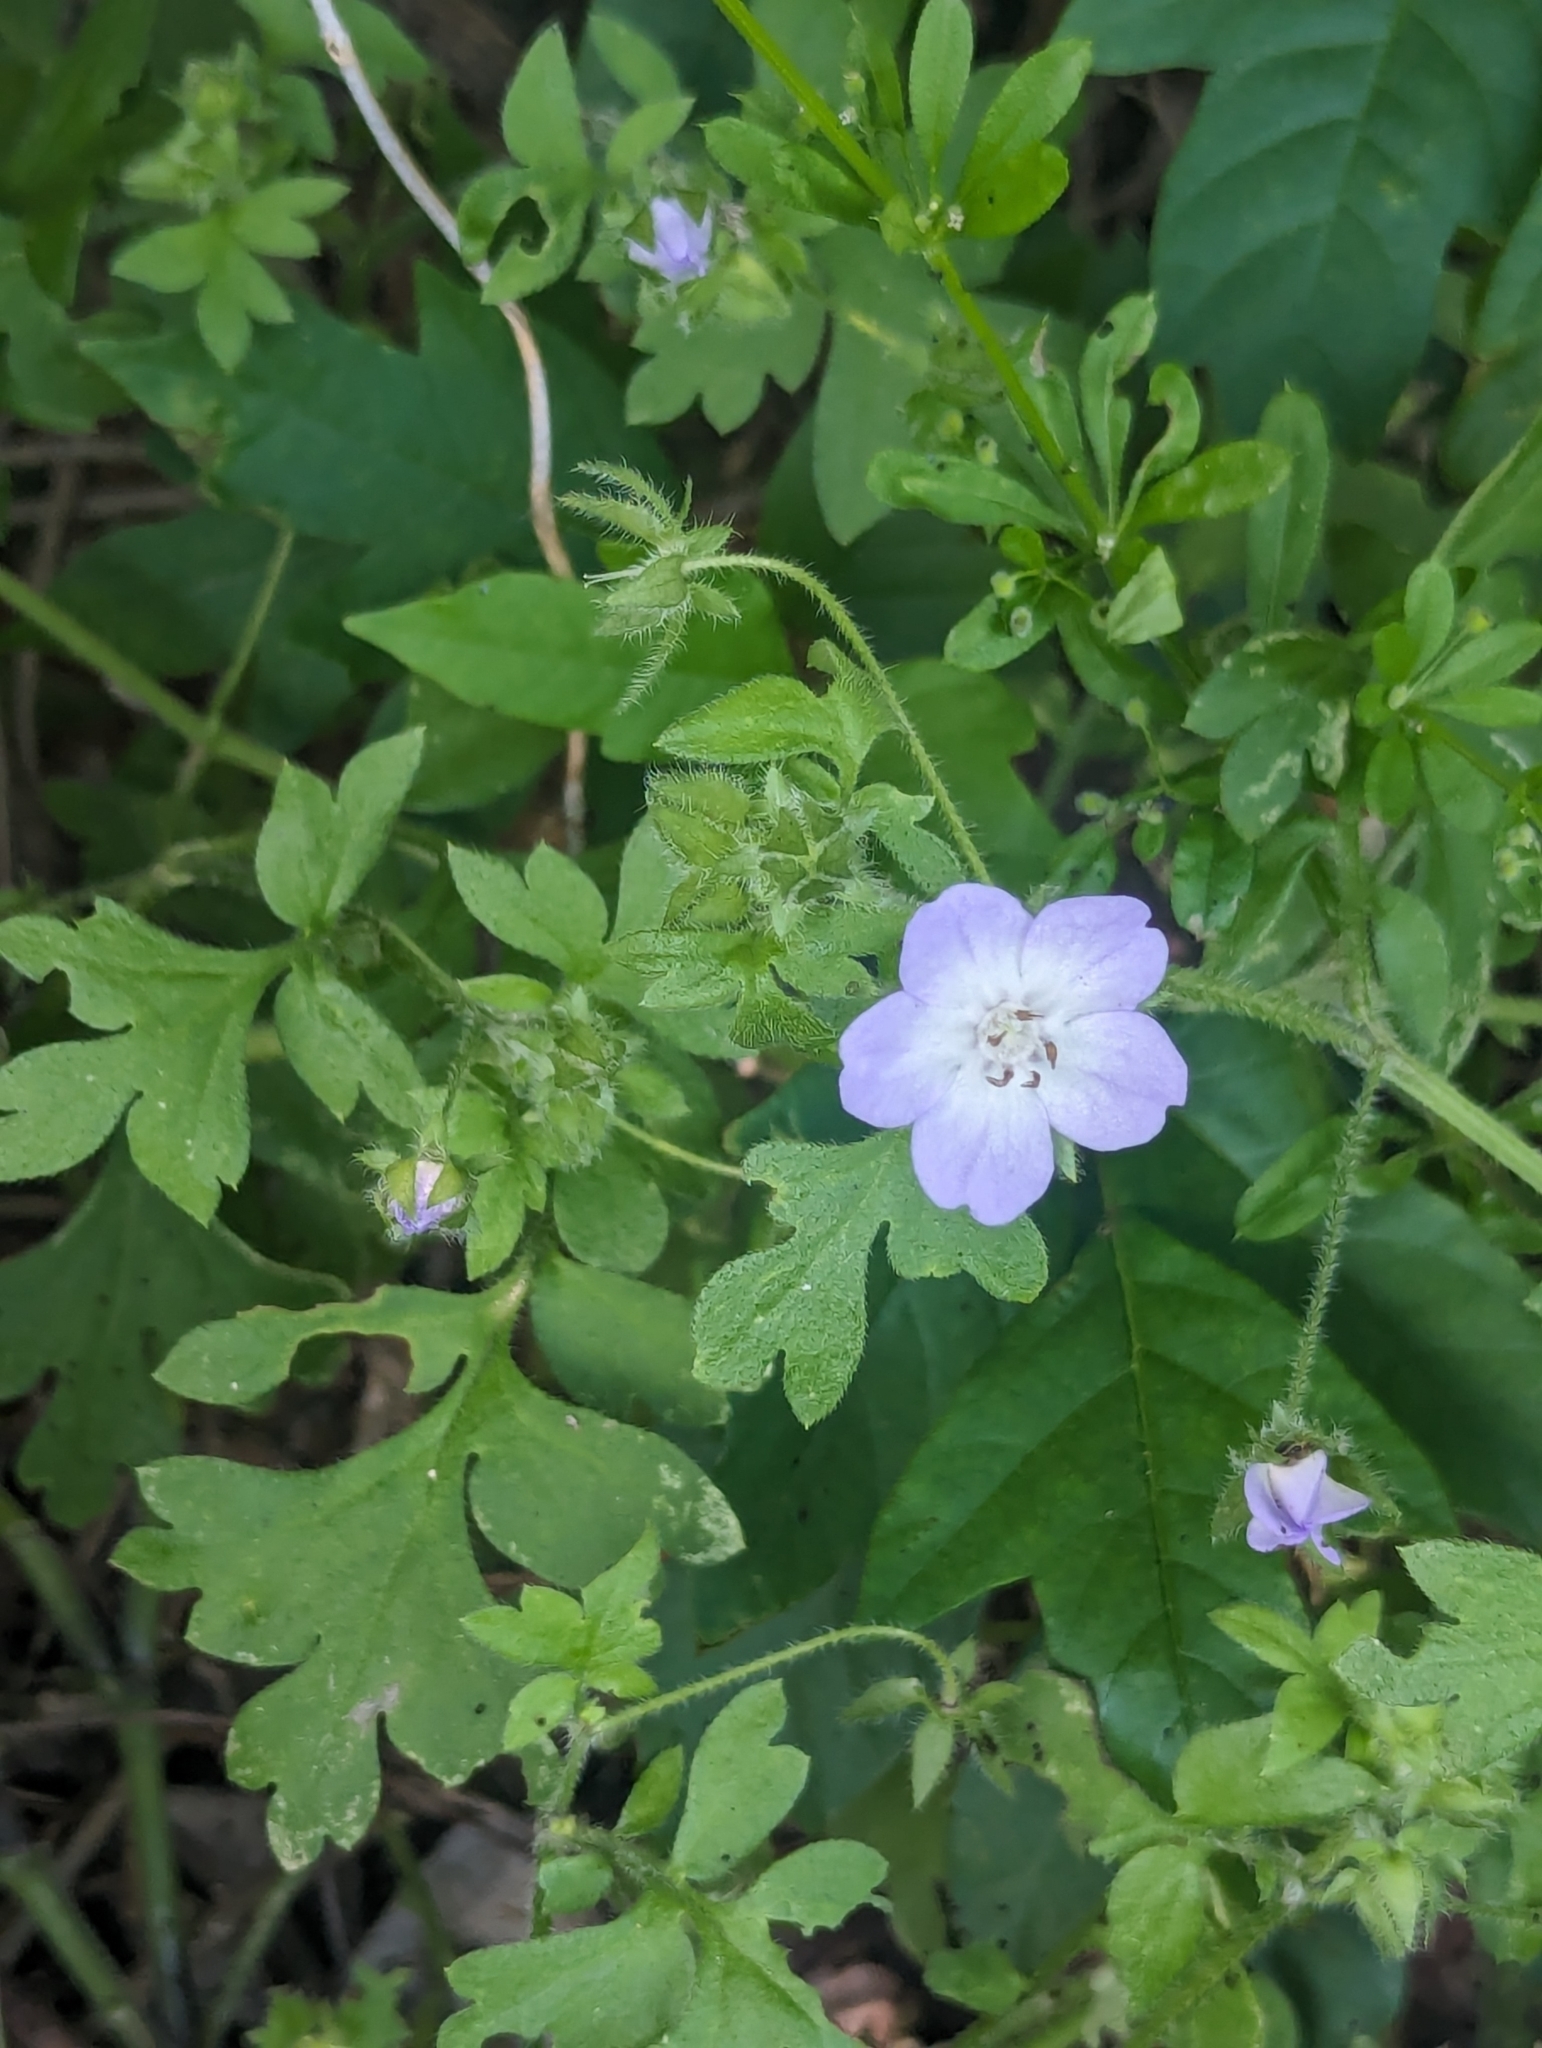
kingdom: Plantae
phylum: Tracheophyta
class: Magnoliopsida
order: Boraginales
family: Hydrophyllaceae
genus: Nemophila
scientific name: Nemophila phacelioides
